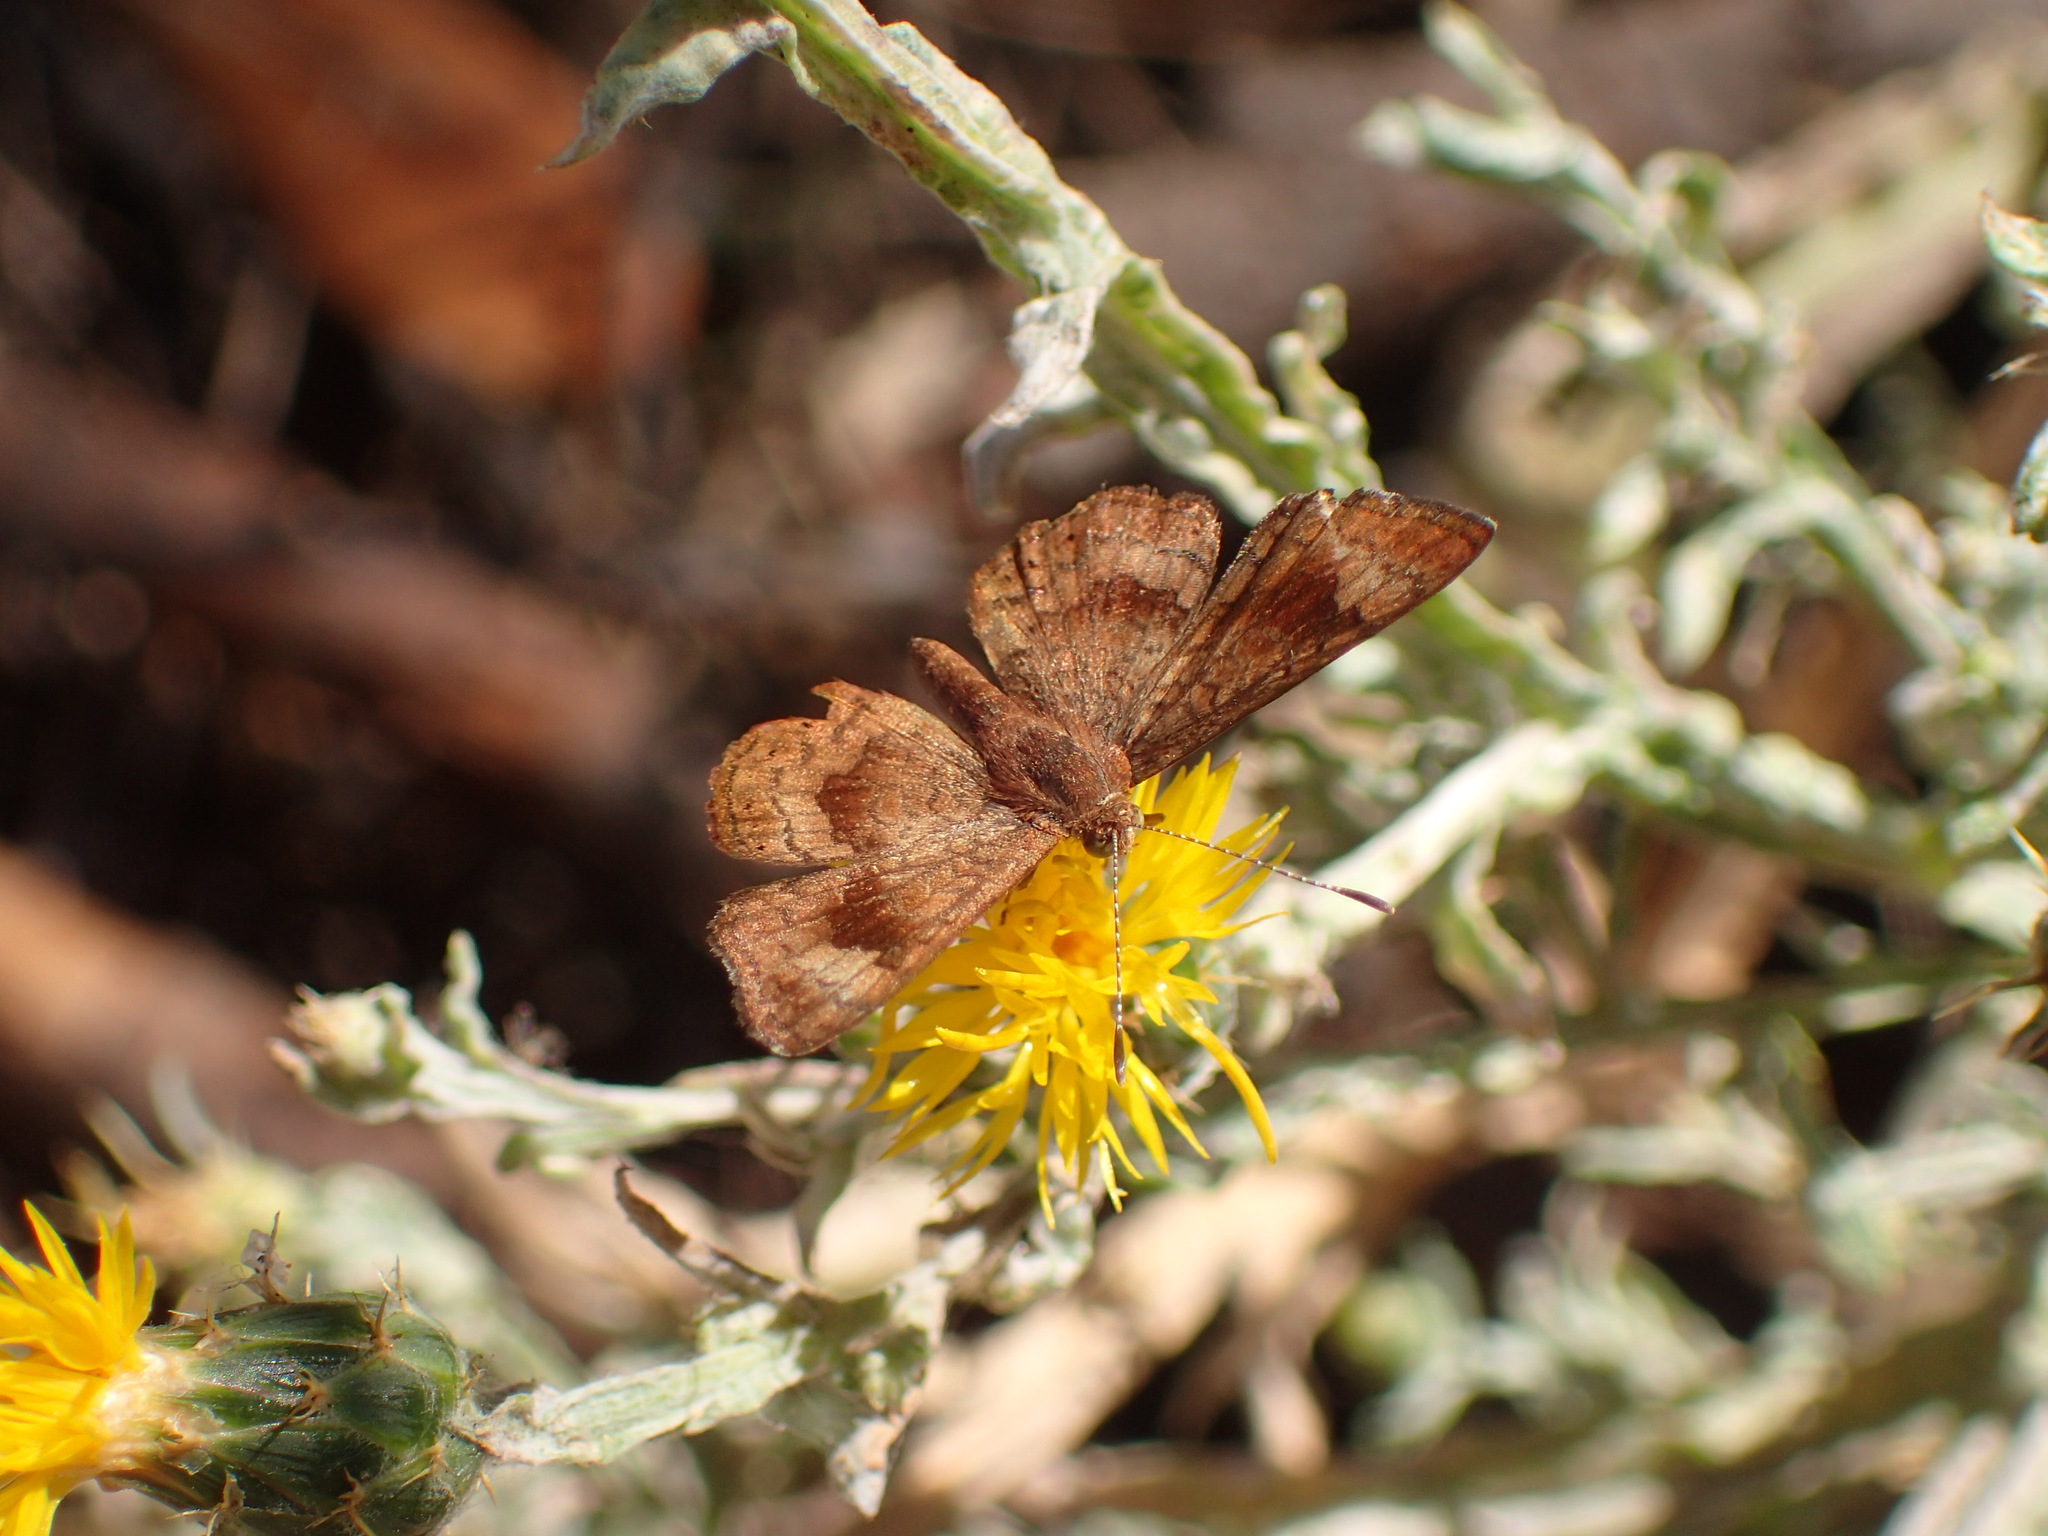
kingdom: Animalia
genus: Calephelis
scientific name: Calephelis nemesis
